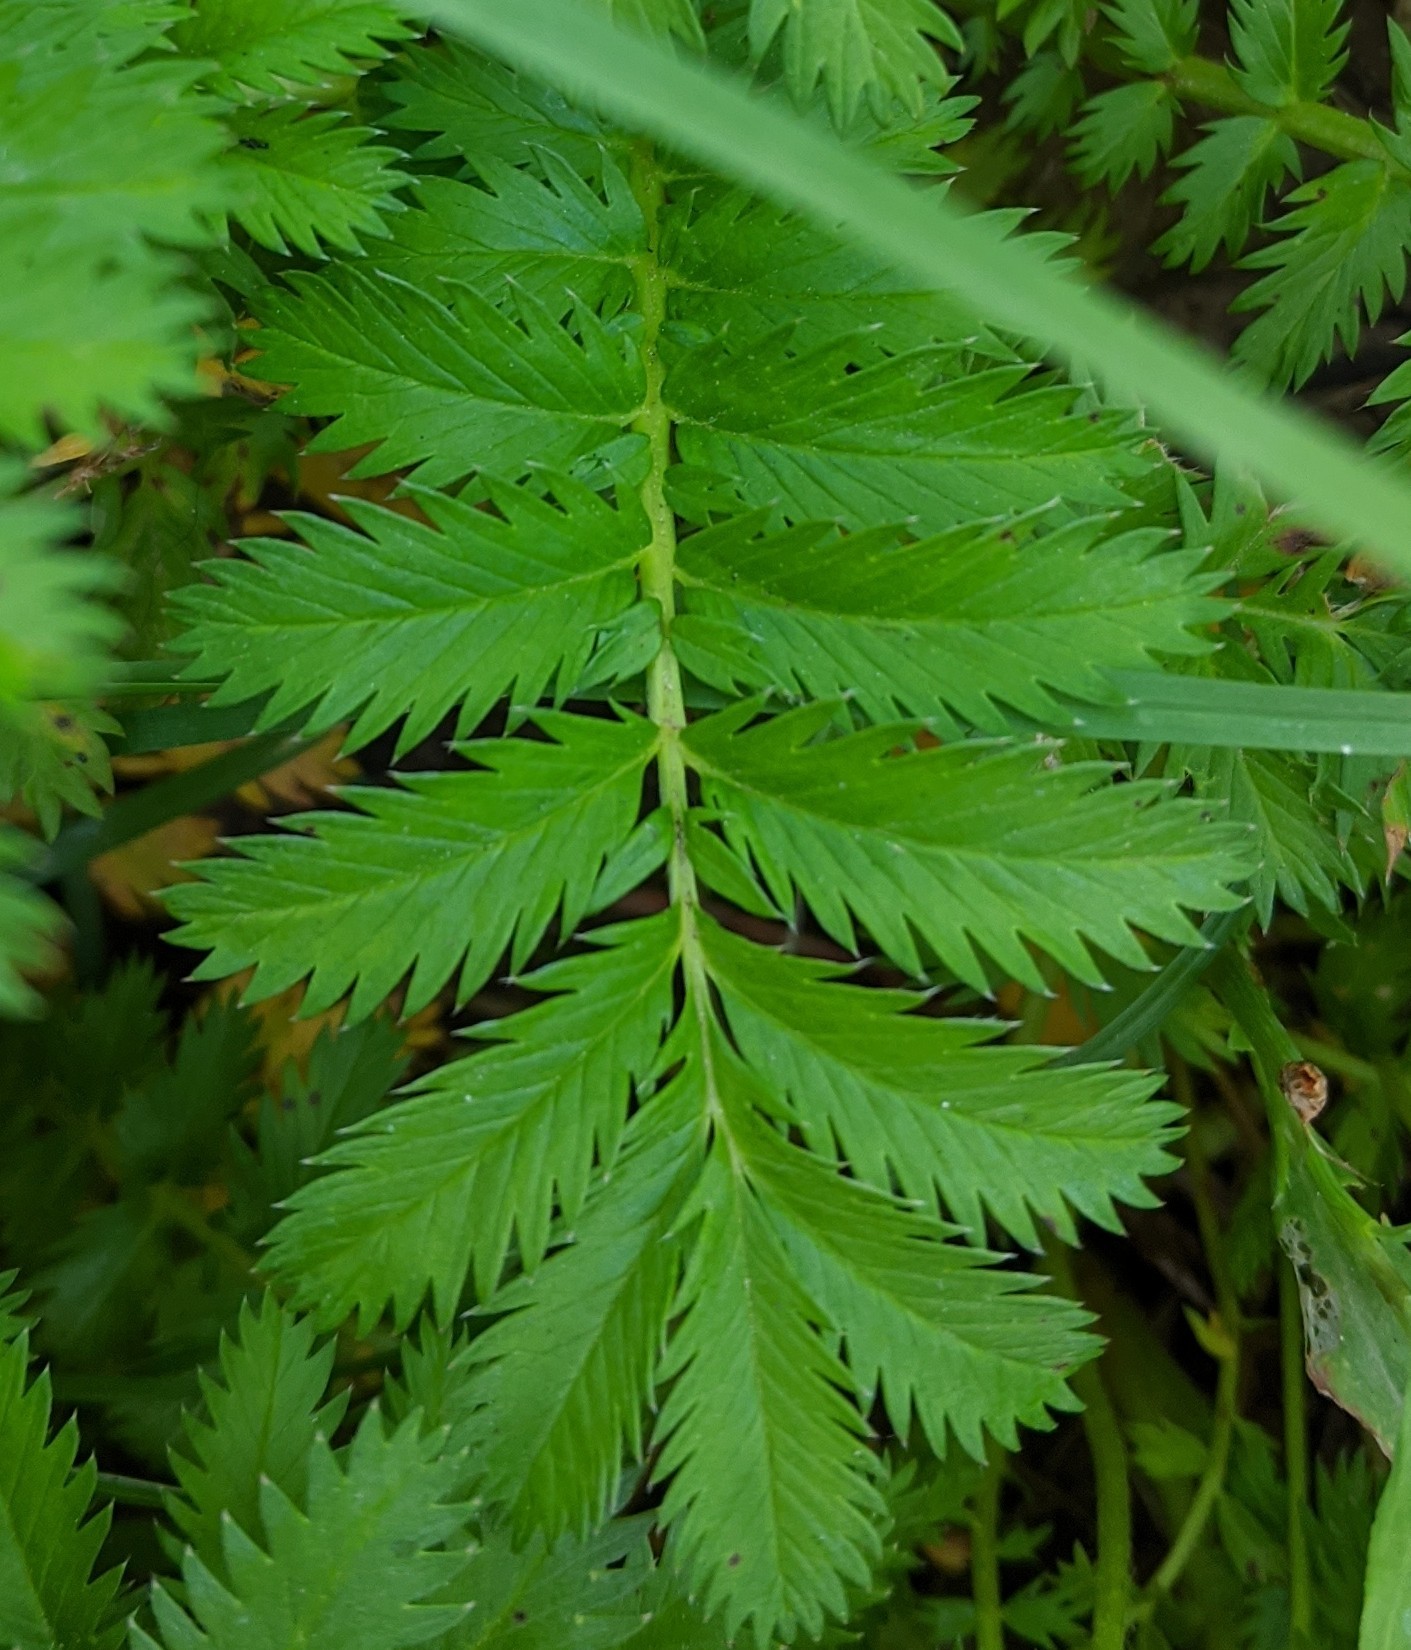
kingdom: Plantae
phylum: Tracheophyta
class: Magnoliopsida
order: Rosales
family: Rosaceae
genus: Argentina
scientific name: Argentina anserina
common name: Common silverweed
